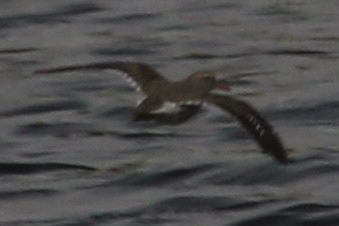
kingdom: Animalia
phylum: Chordata
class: Aves
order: Charadriiformes
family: Scolopacidae
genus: Actitis
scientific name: Actitis macularius
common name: Spotted sandpiper
